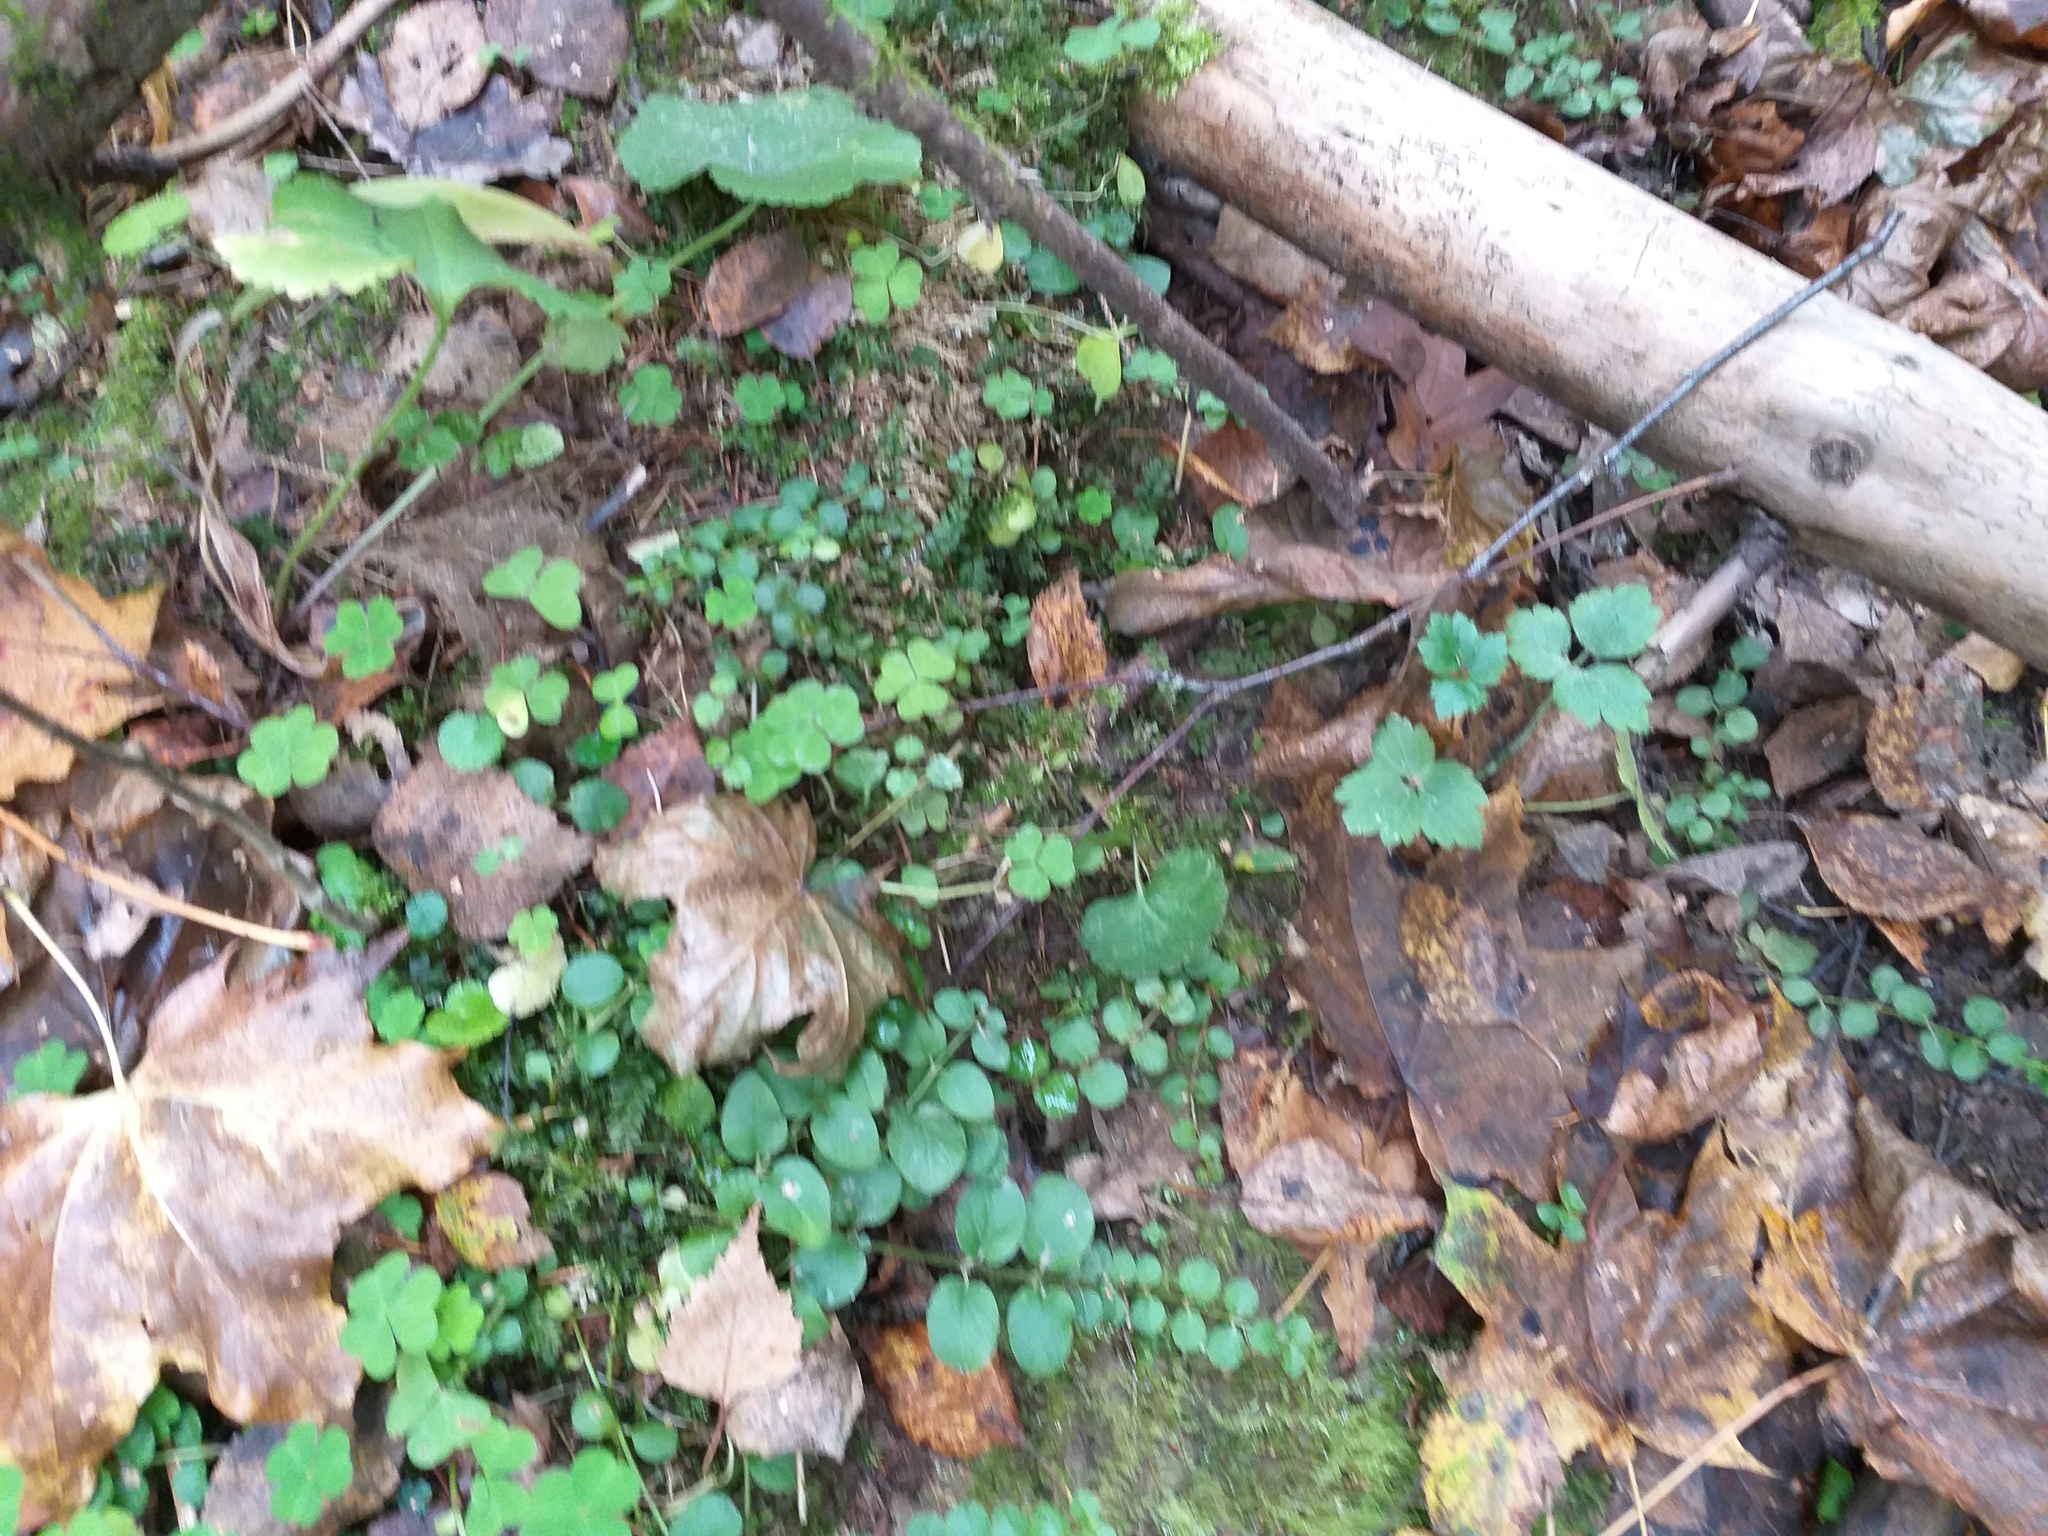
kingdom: Plantae
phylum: Tracheophyta
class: Magnoliopsida
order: Ericales
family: Primulaceae
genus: Lysimachia
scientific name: Lysimachia nummularia
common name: Moneywort
